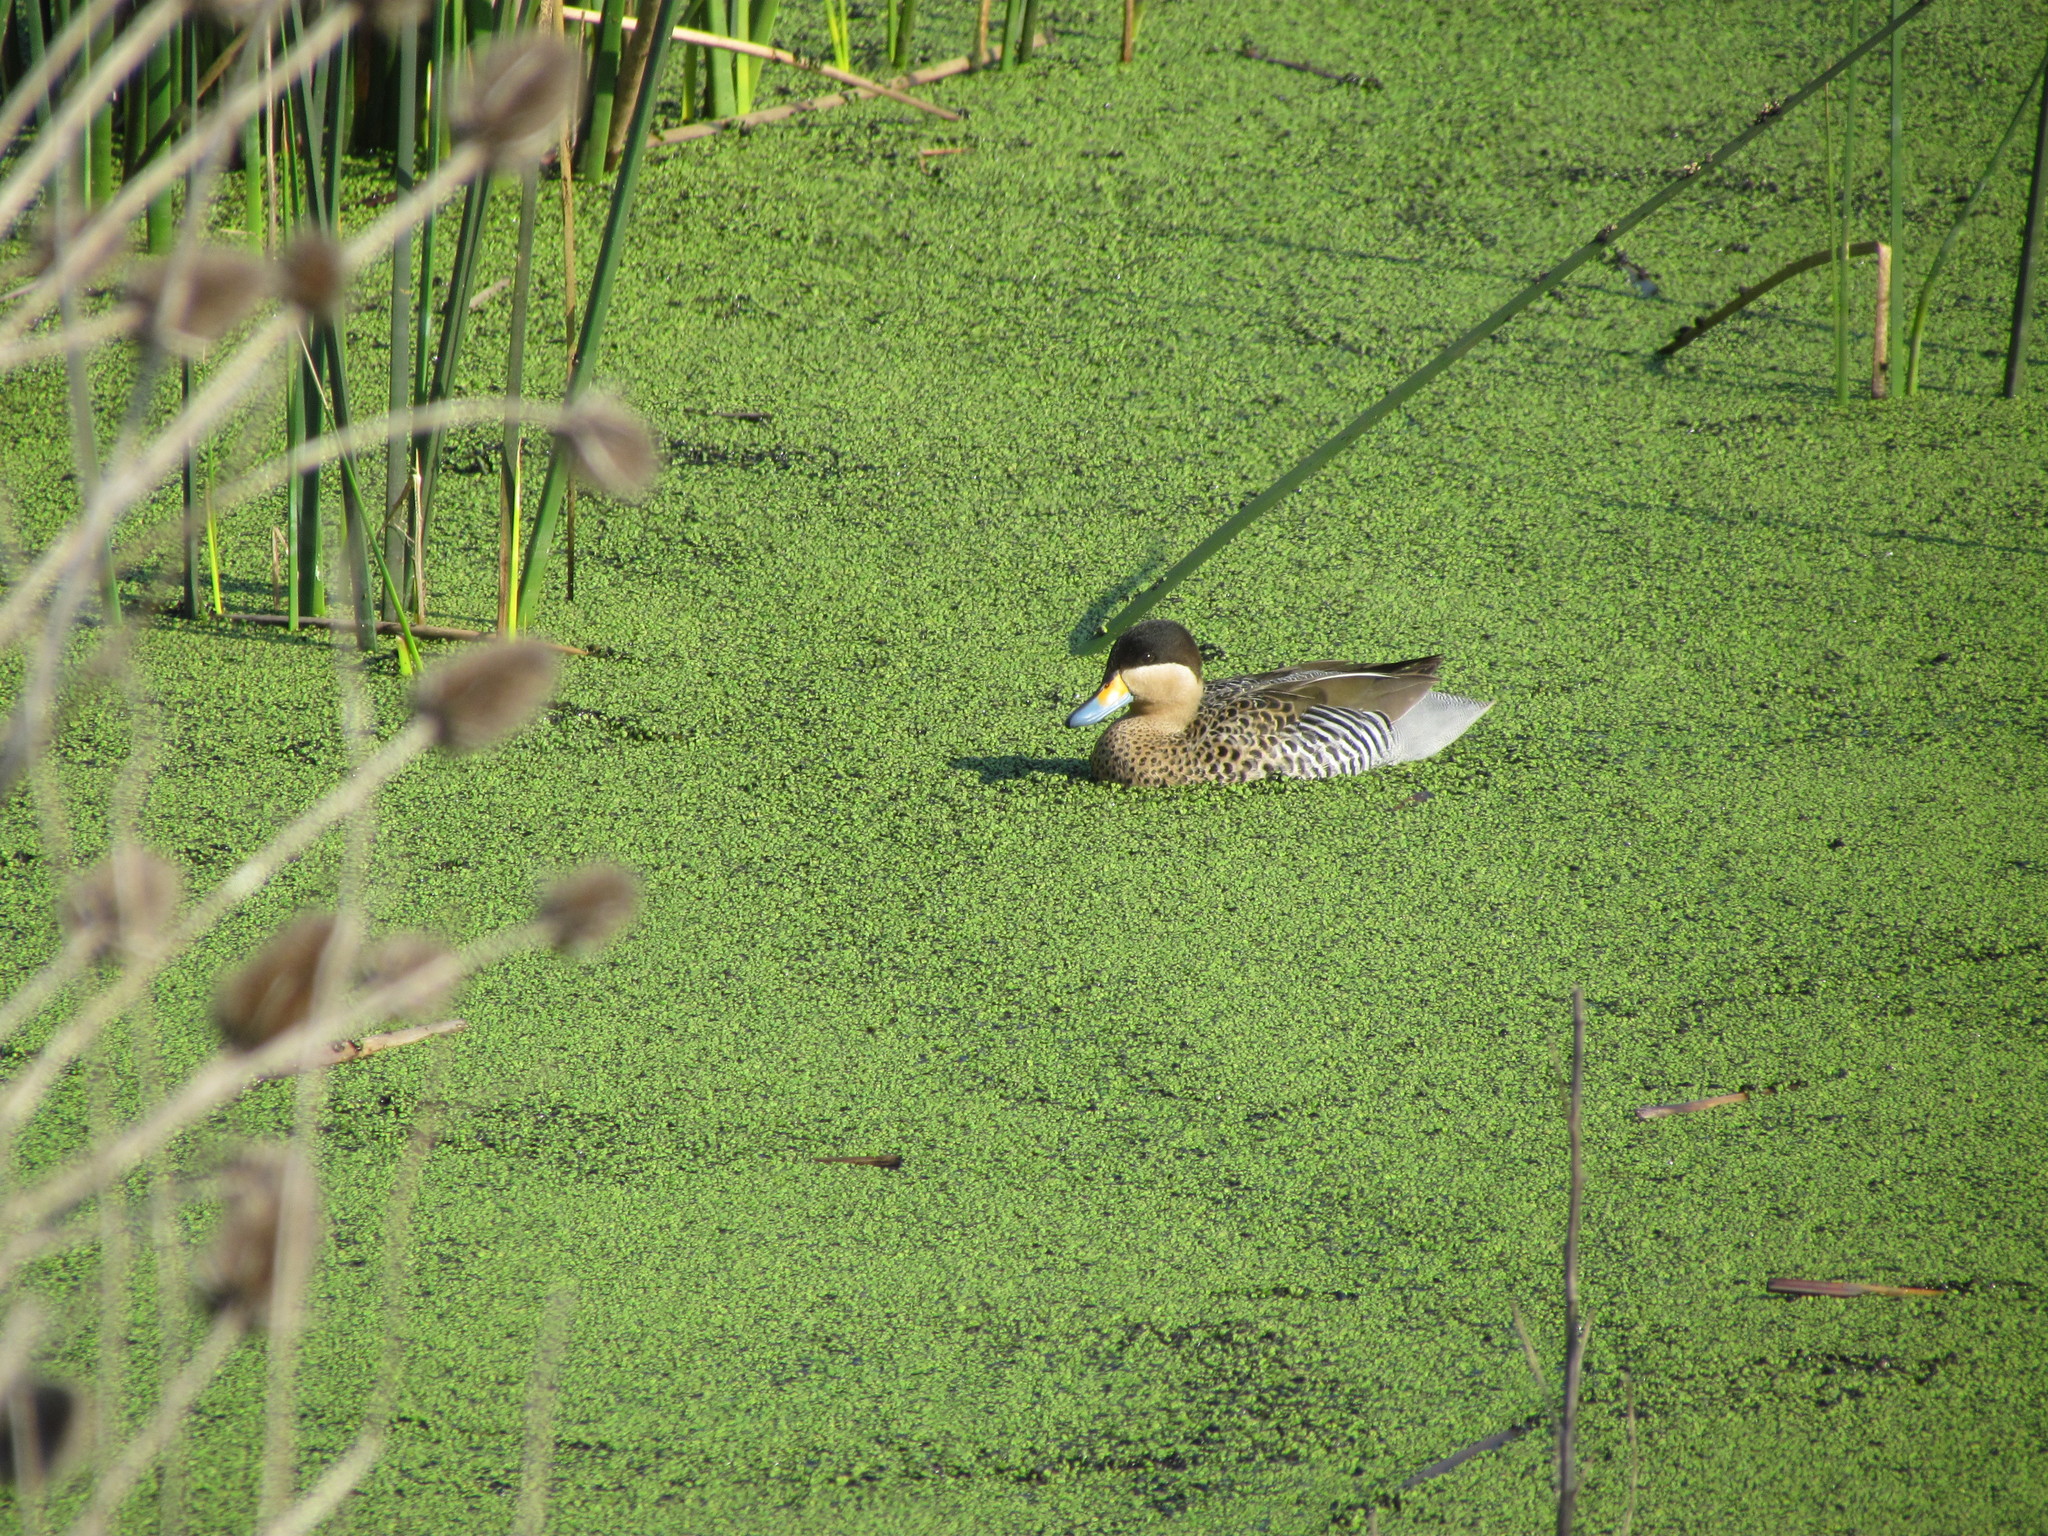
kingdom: Animalia
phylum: Chordata
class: Aves
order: Anseriformes
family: Anatidae
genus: Spatula
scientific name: Spatula versicolor
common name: Silver teal
